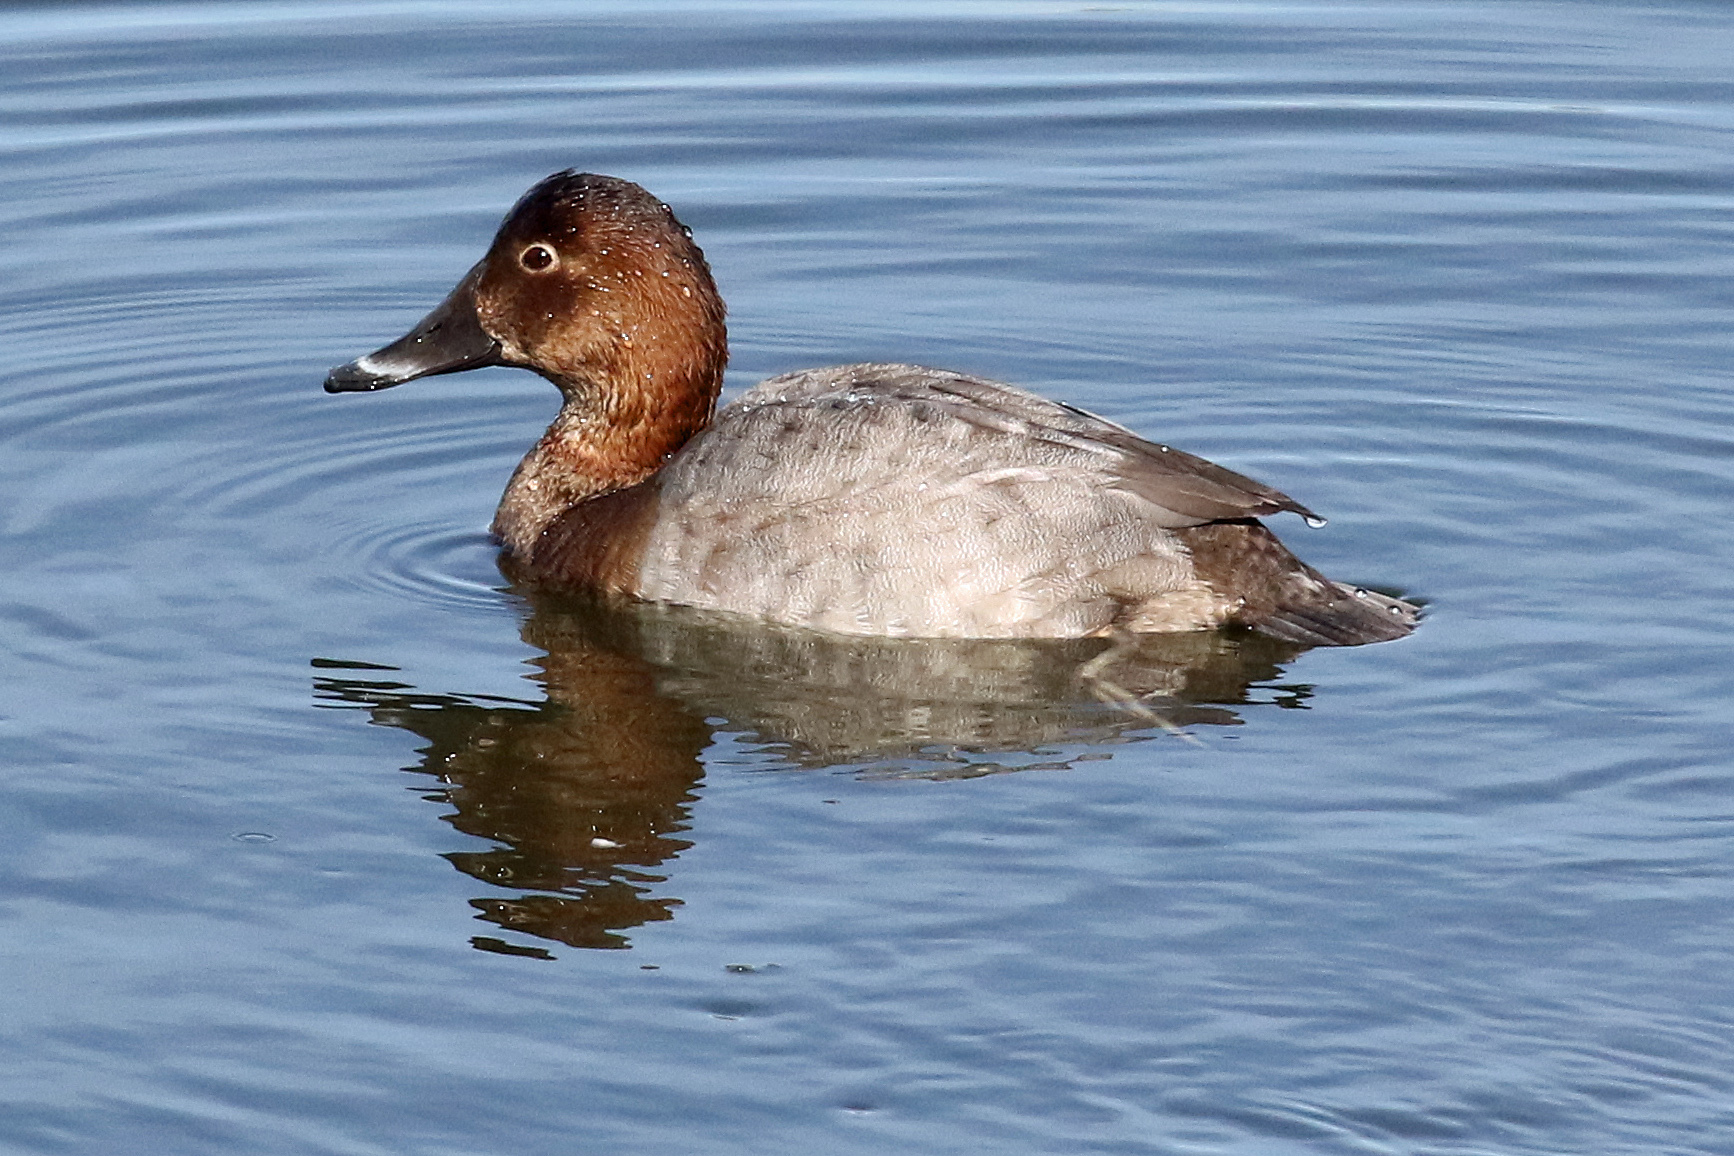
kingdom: Animalia
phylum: Chordata
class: Aves
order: Anseriformes
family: Anatidae
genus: Aythya
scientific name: Aythya ferina
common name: Common pochard
